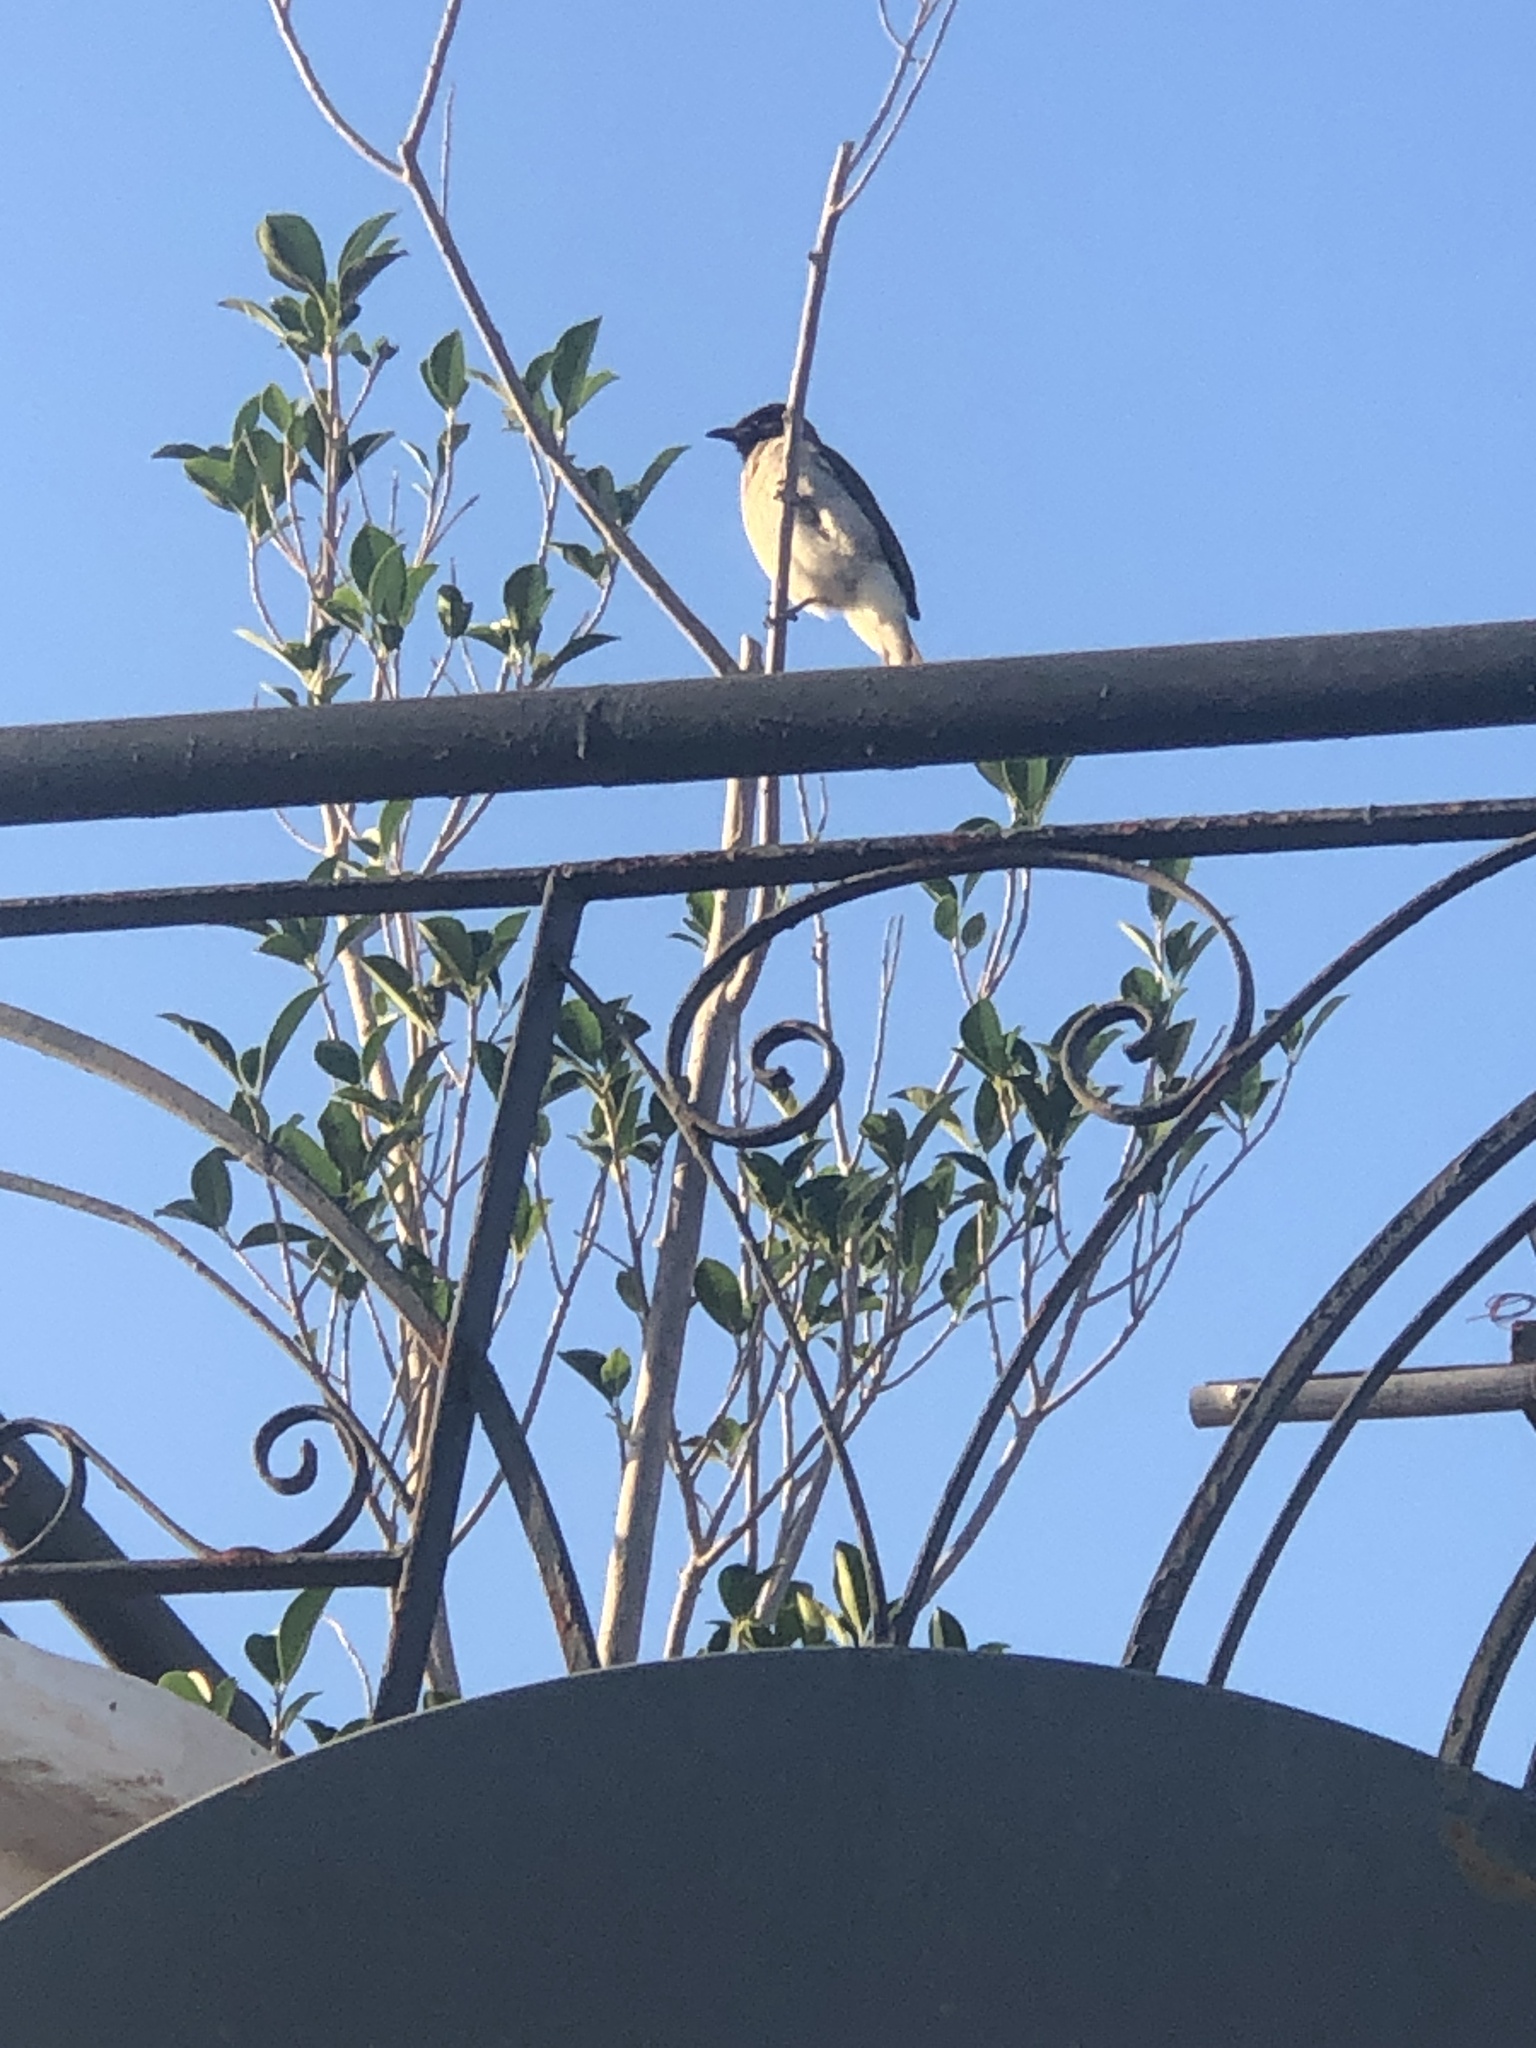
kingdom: Animalia
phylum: Chordata
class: Aves
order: Passeriformes
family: Pycnonotidae
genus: Pycnonotus
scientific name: Pycnonotus barbatus
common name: Common bulbul
